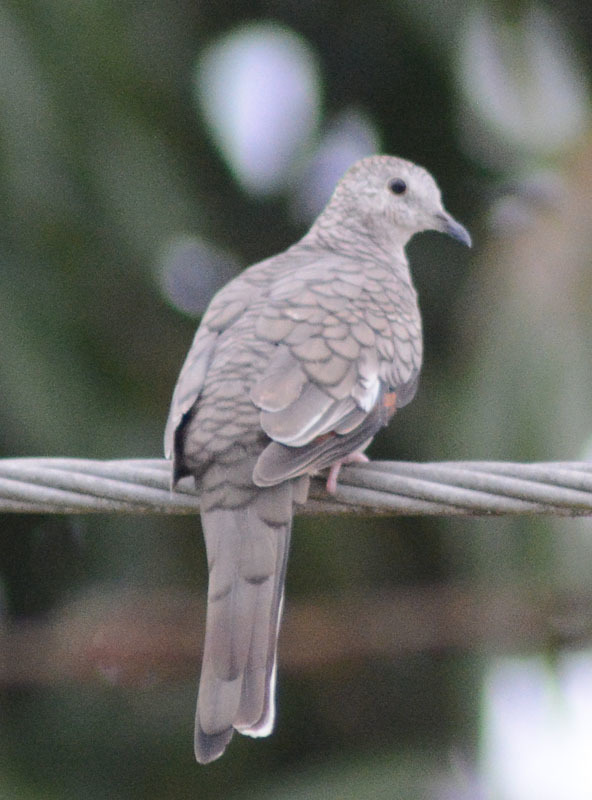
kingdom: Animalia
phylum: Chordata
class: Aves
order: Columbiformes
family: Columbidae
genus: Columbina
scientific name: Columbina inca
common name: Inca dove
